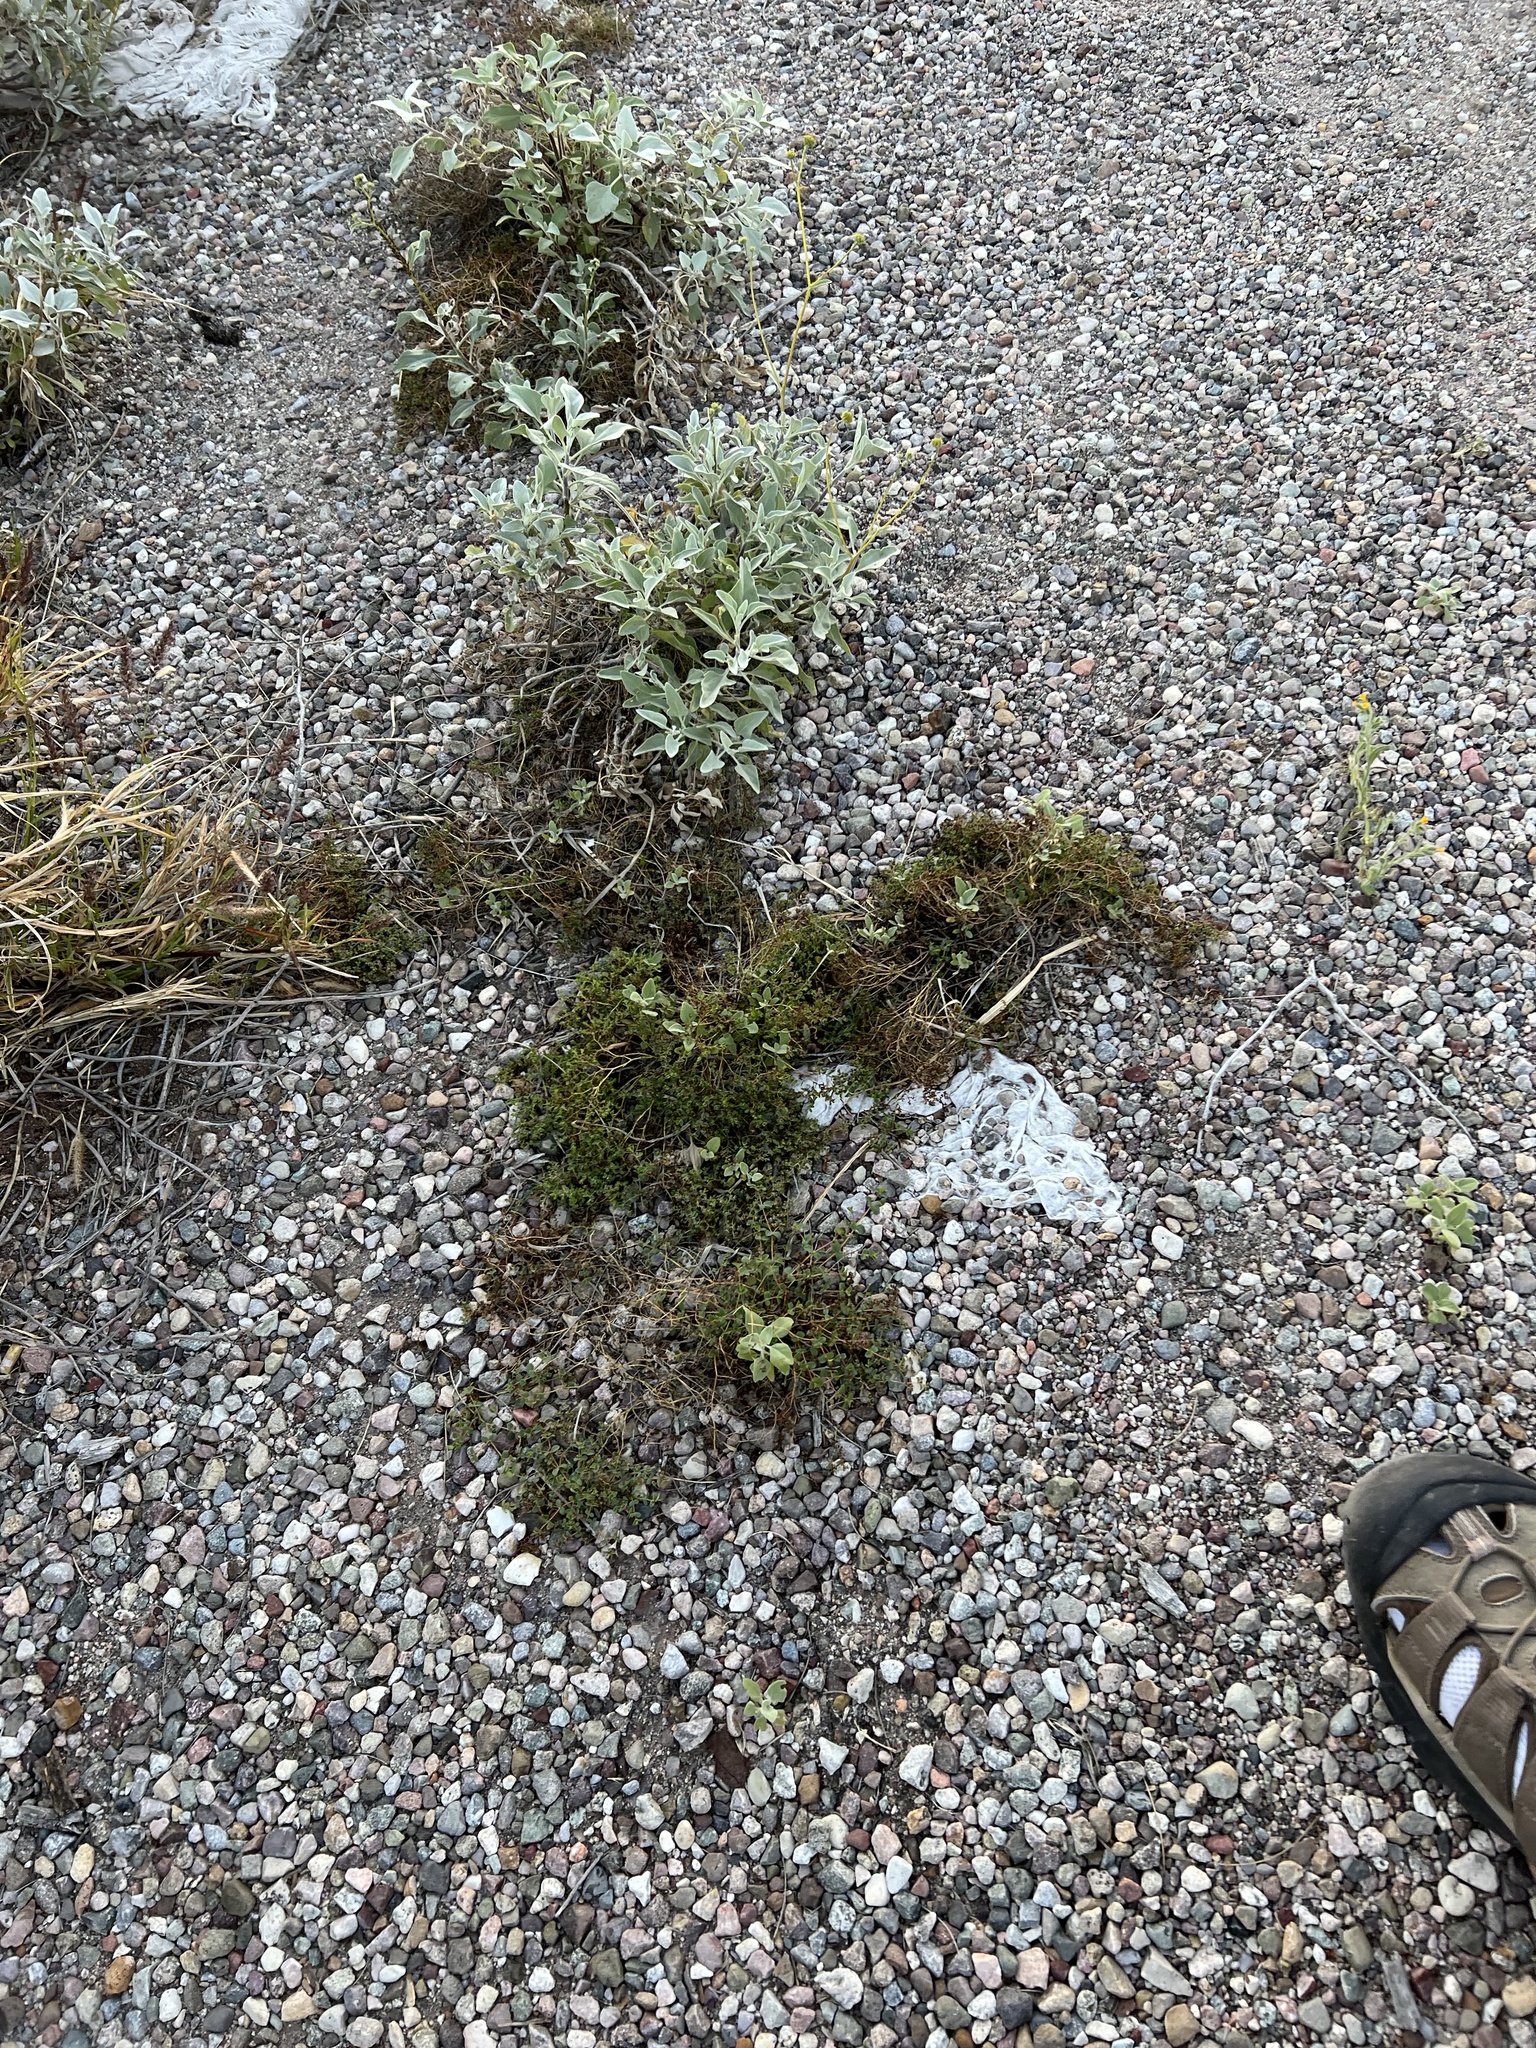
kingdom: Plantae
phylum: Tracheophyta
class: Magnoliopsida
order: Malpighiales
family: Euphorbiaceae
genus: Euphorbia
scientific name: Euphorbia polycarpa
